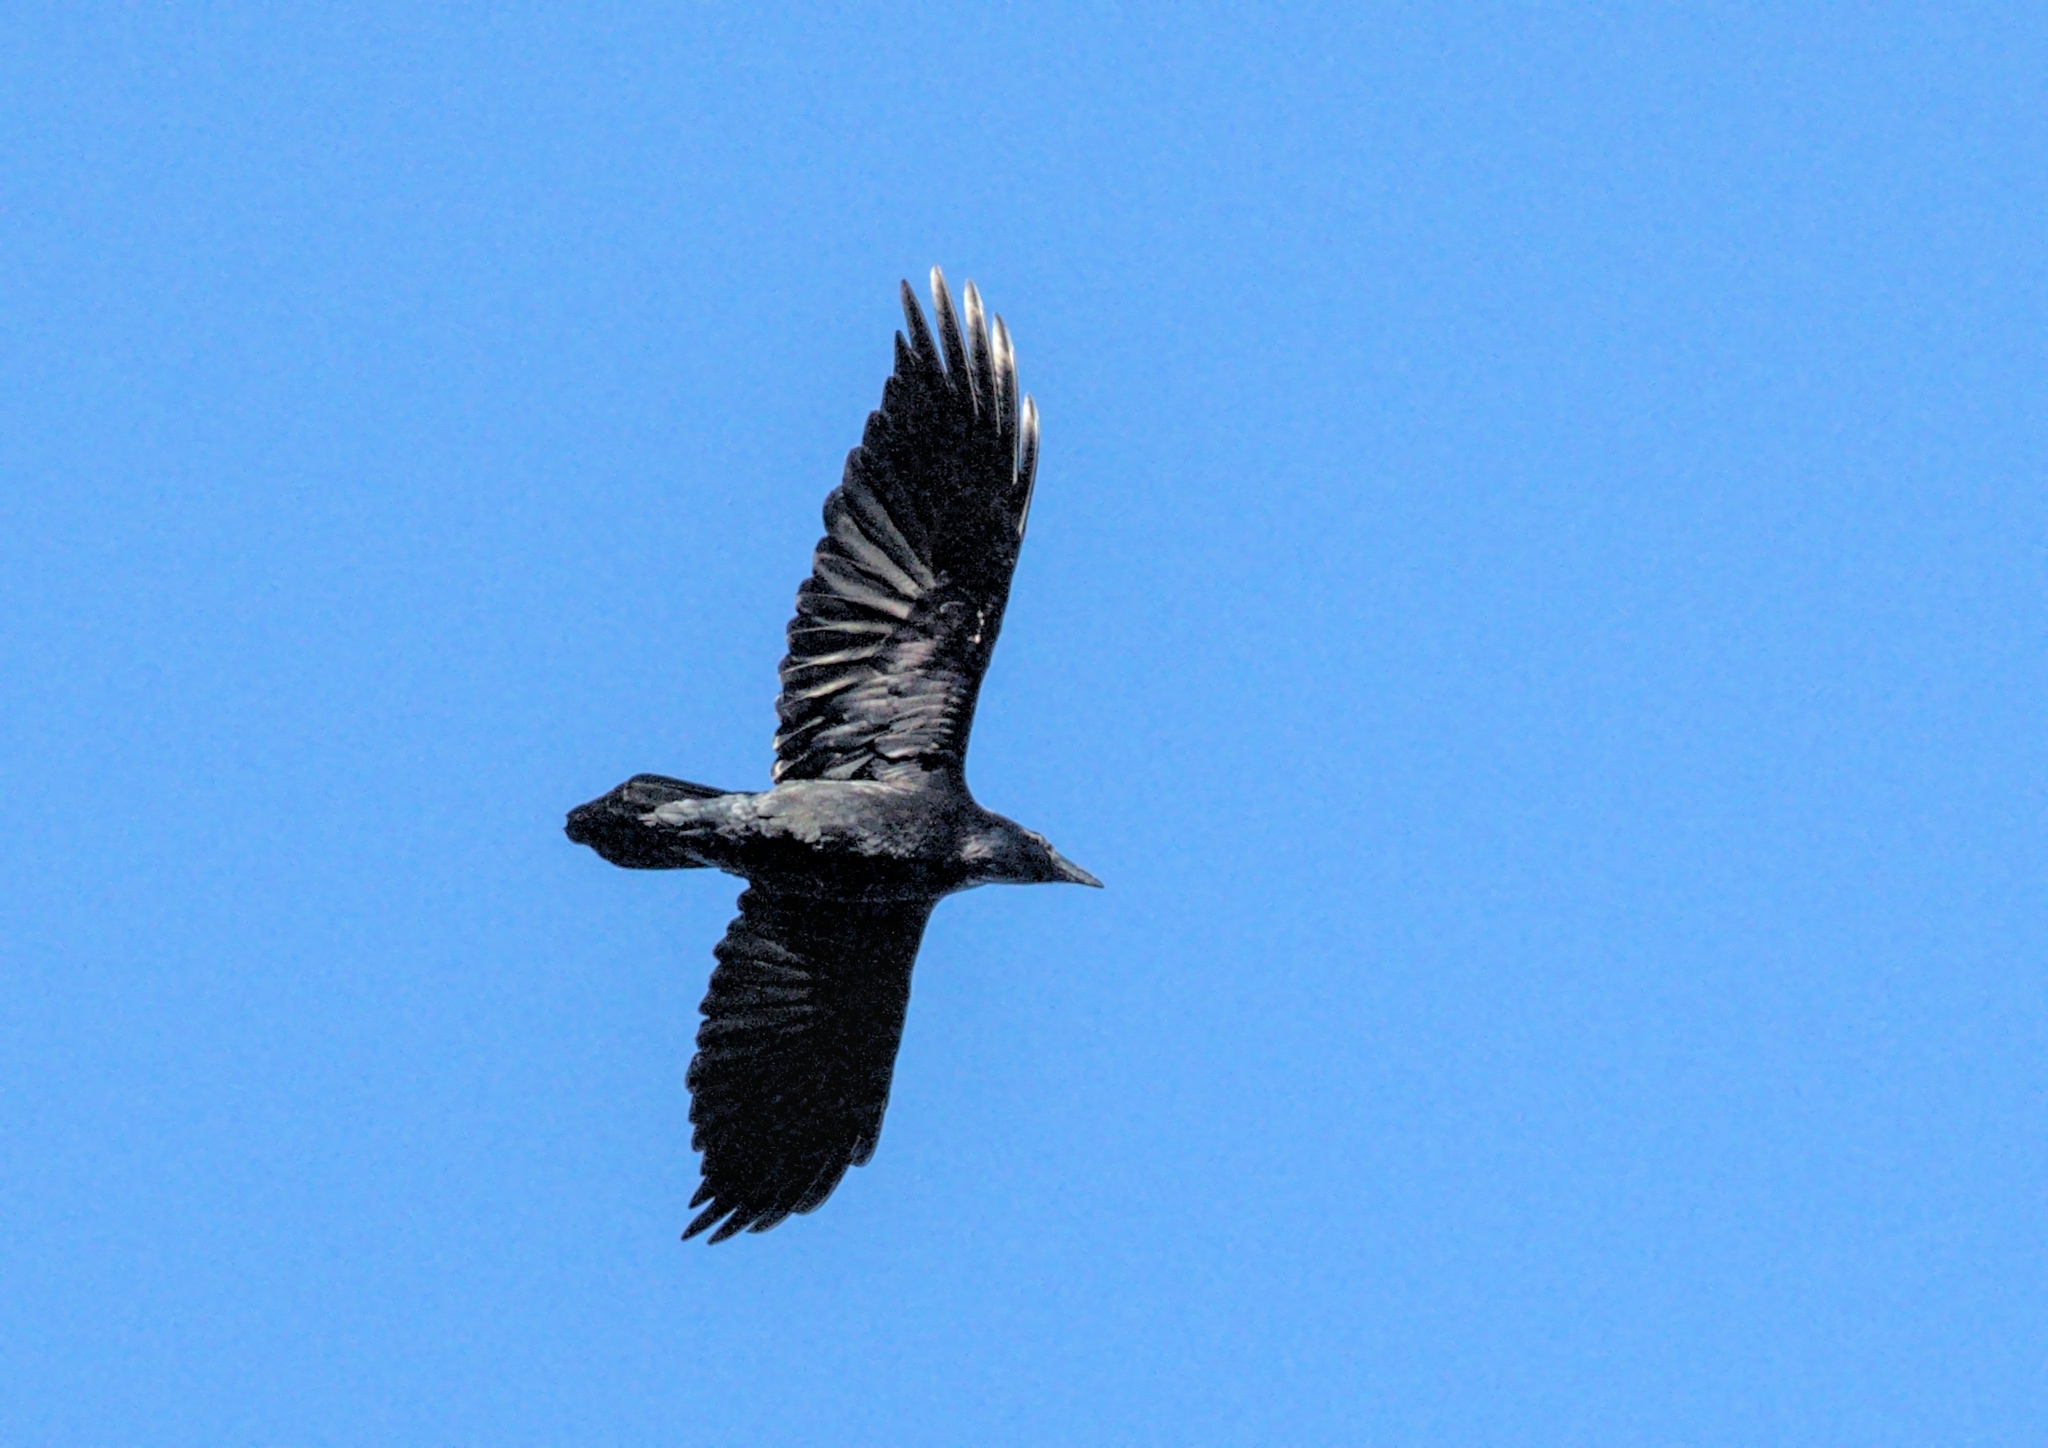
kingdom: Animalia
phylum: Chordata
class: Aves
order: Passeriformes
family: Corvidae
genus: Corvus
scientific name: Corvus corax
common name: Common raven
